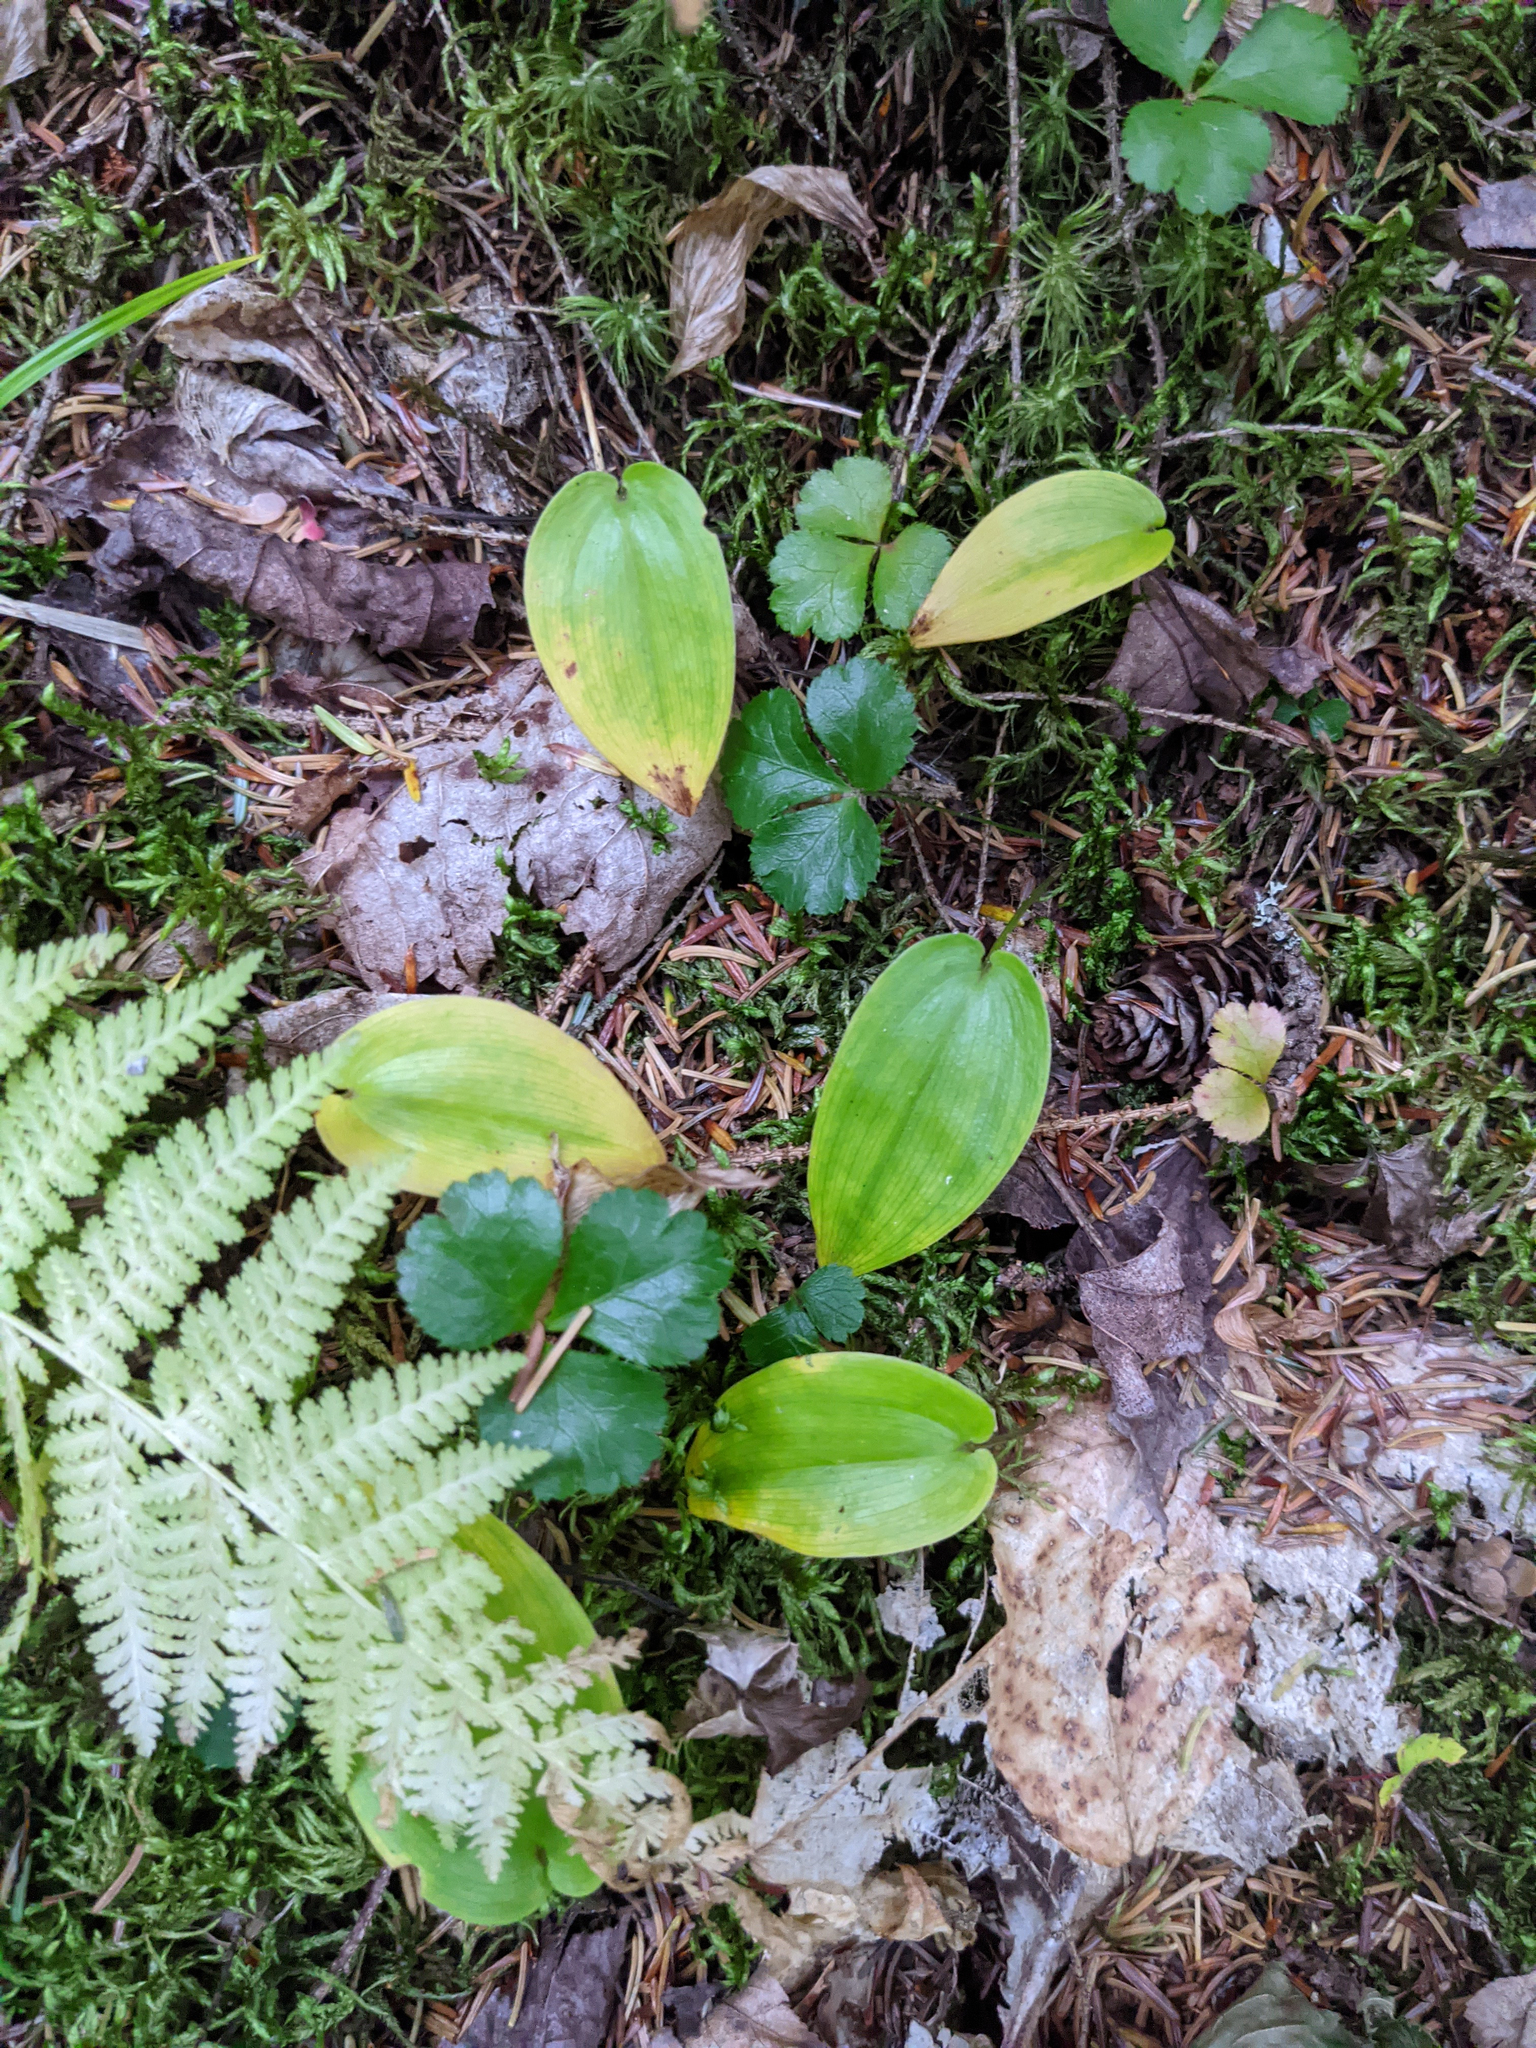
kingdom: Plantae
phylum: Tracheophyta
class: Magnoliopsida
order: Ranunculales
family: Ranunculaceae
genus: Coptis
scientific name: Coptis trifolia
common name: Canker-root
